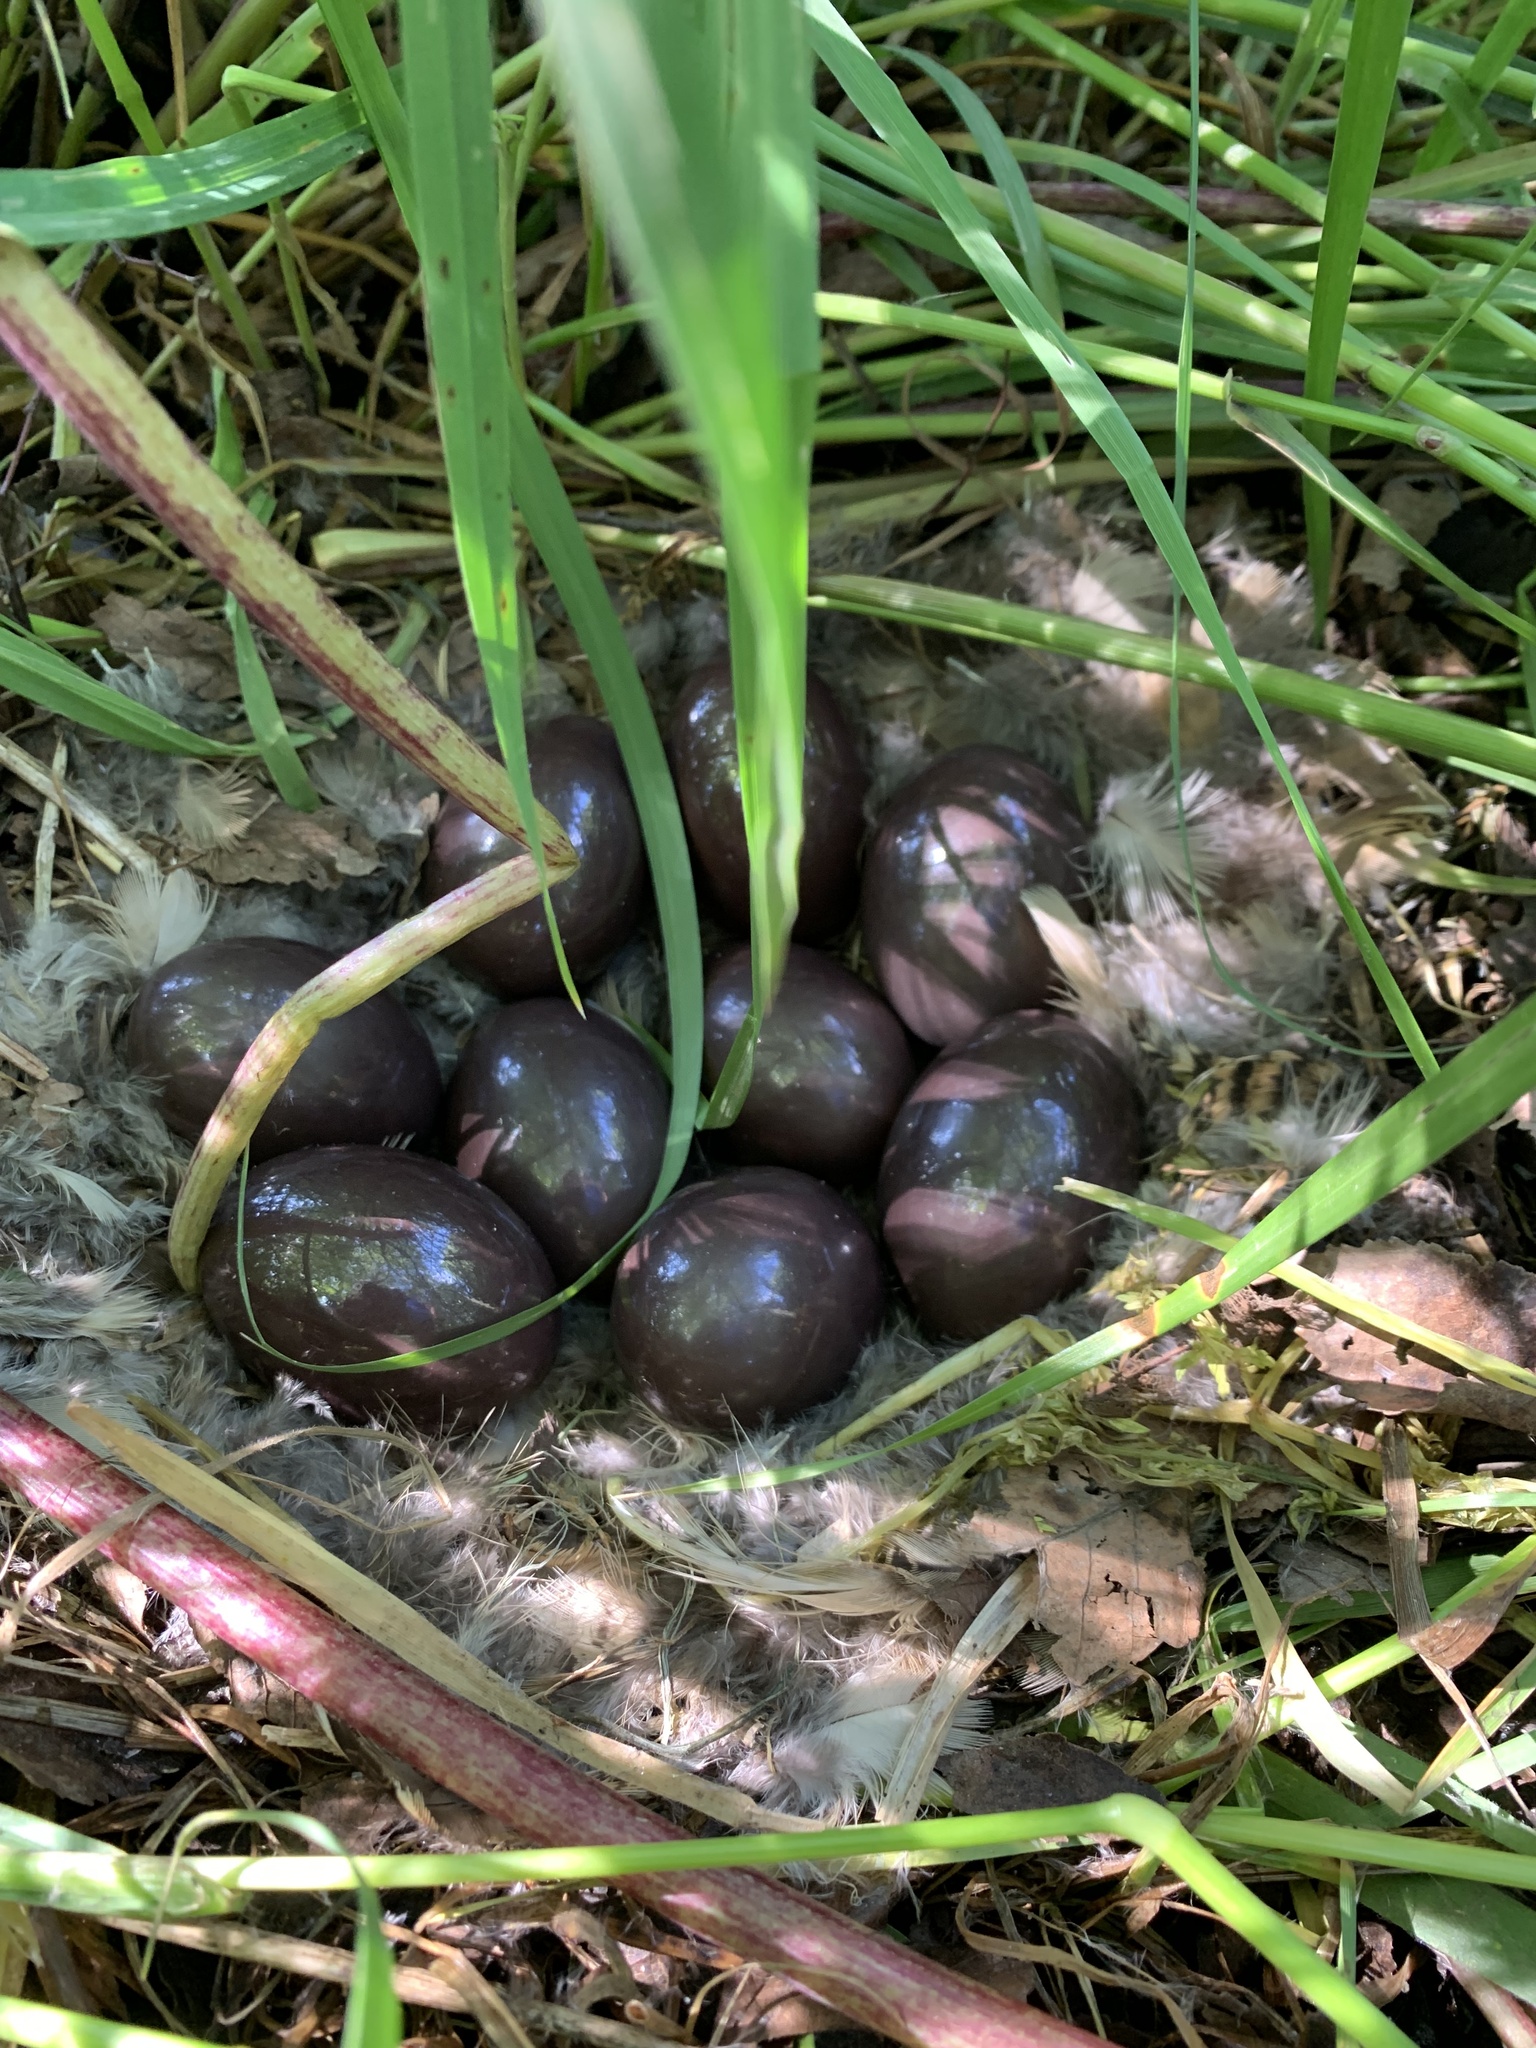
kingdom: Animalia
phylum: Chordata
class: Aves
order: Tinamiformes
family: Tinamidae
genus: Nothoprocta
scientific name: Nothoprocta perdicaria
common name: Chilean tinamou
